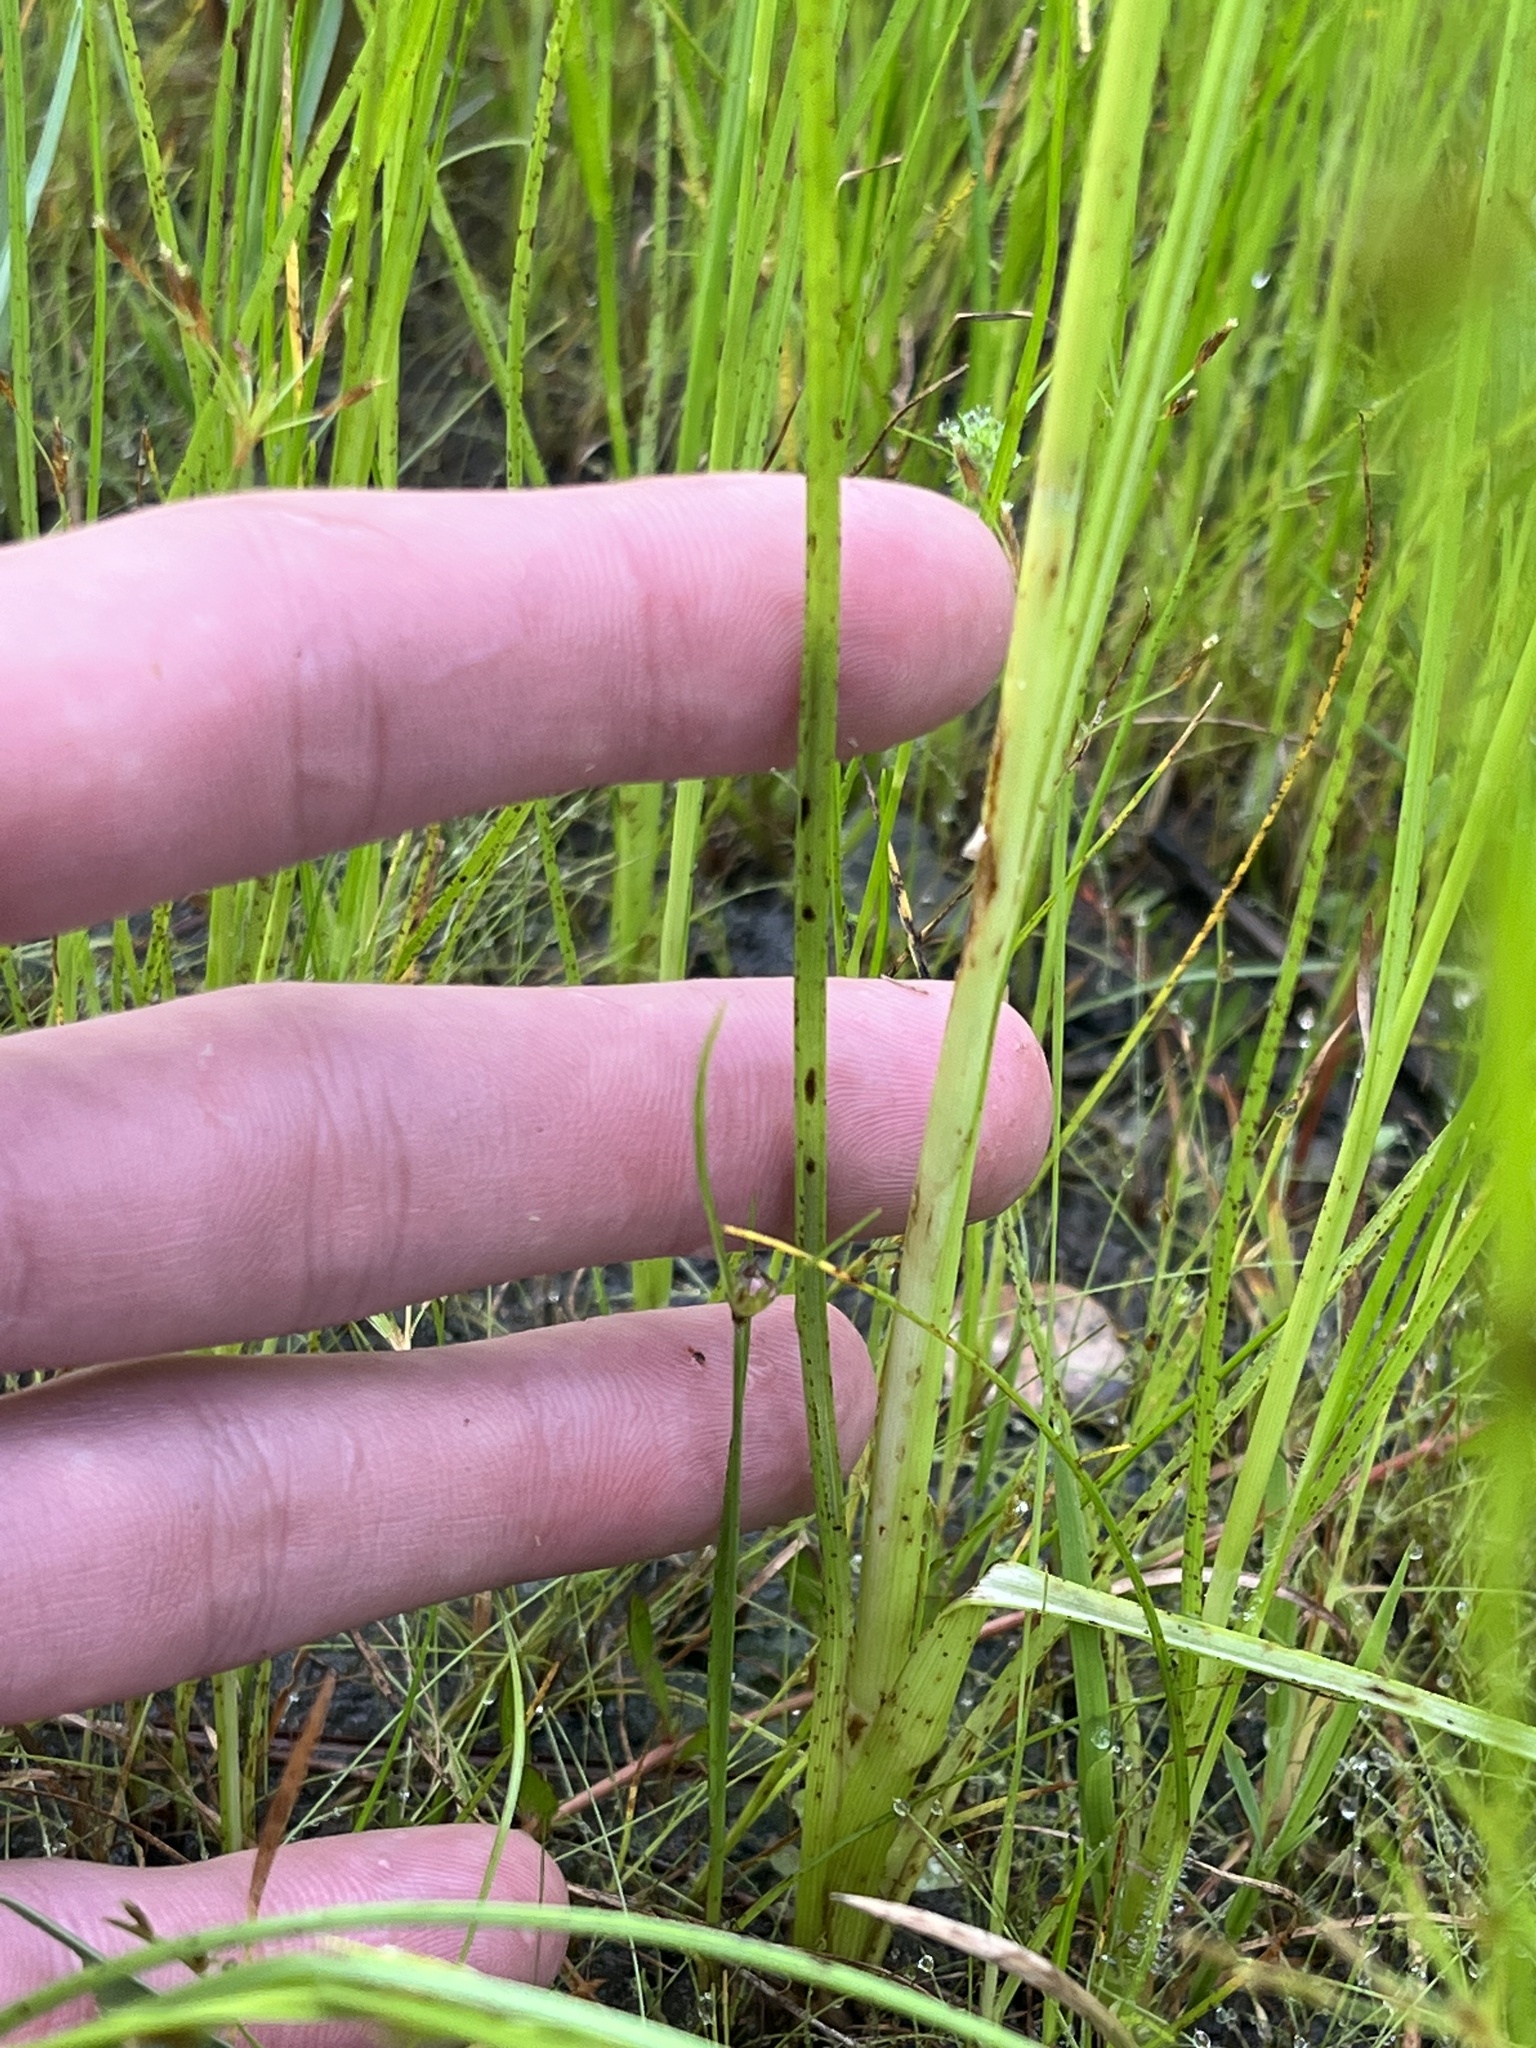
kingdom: Plantae
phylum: Tracheophyta
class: Liliopsida
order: Poales
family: Cyperaceae
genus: Rhynchospora
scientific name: Rhynchospora nitens
